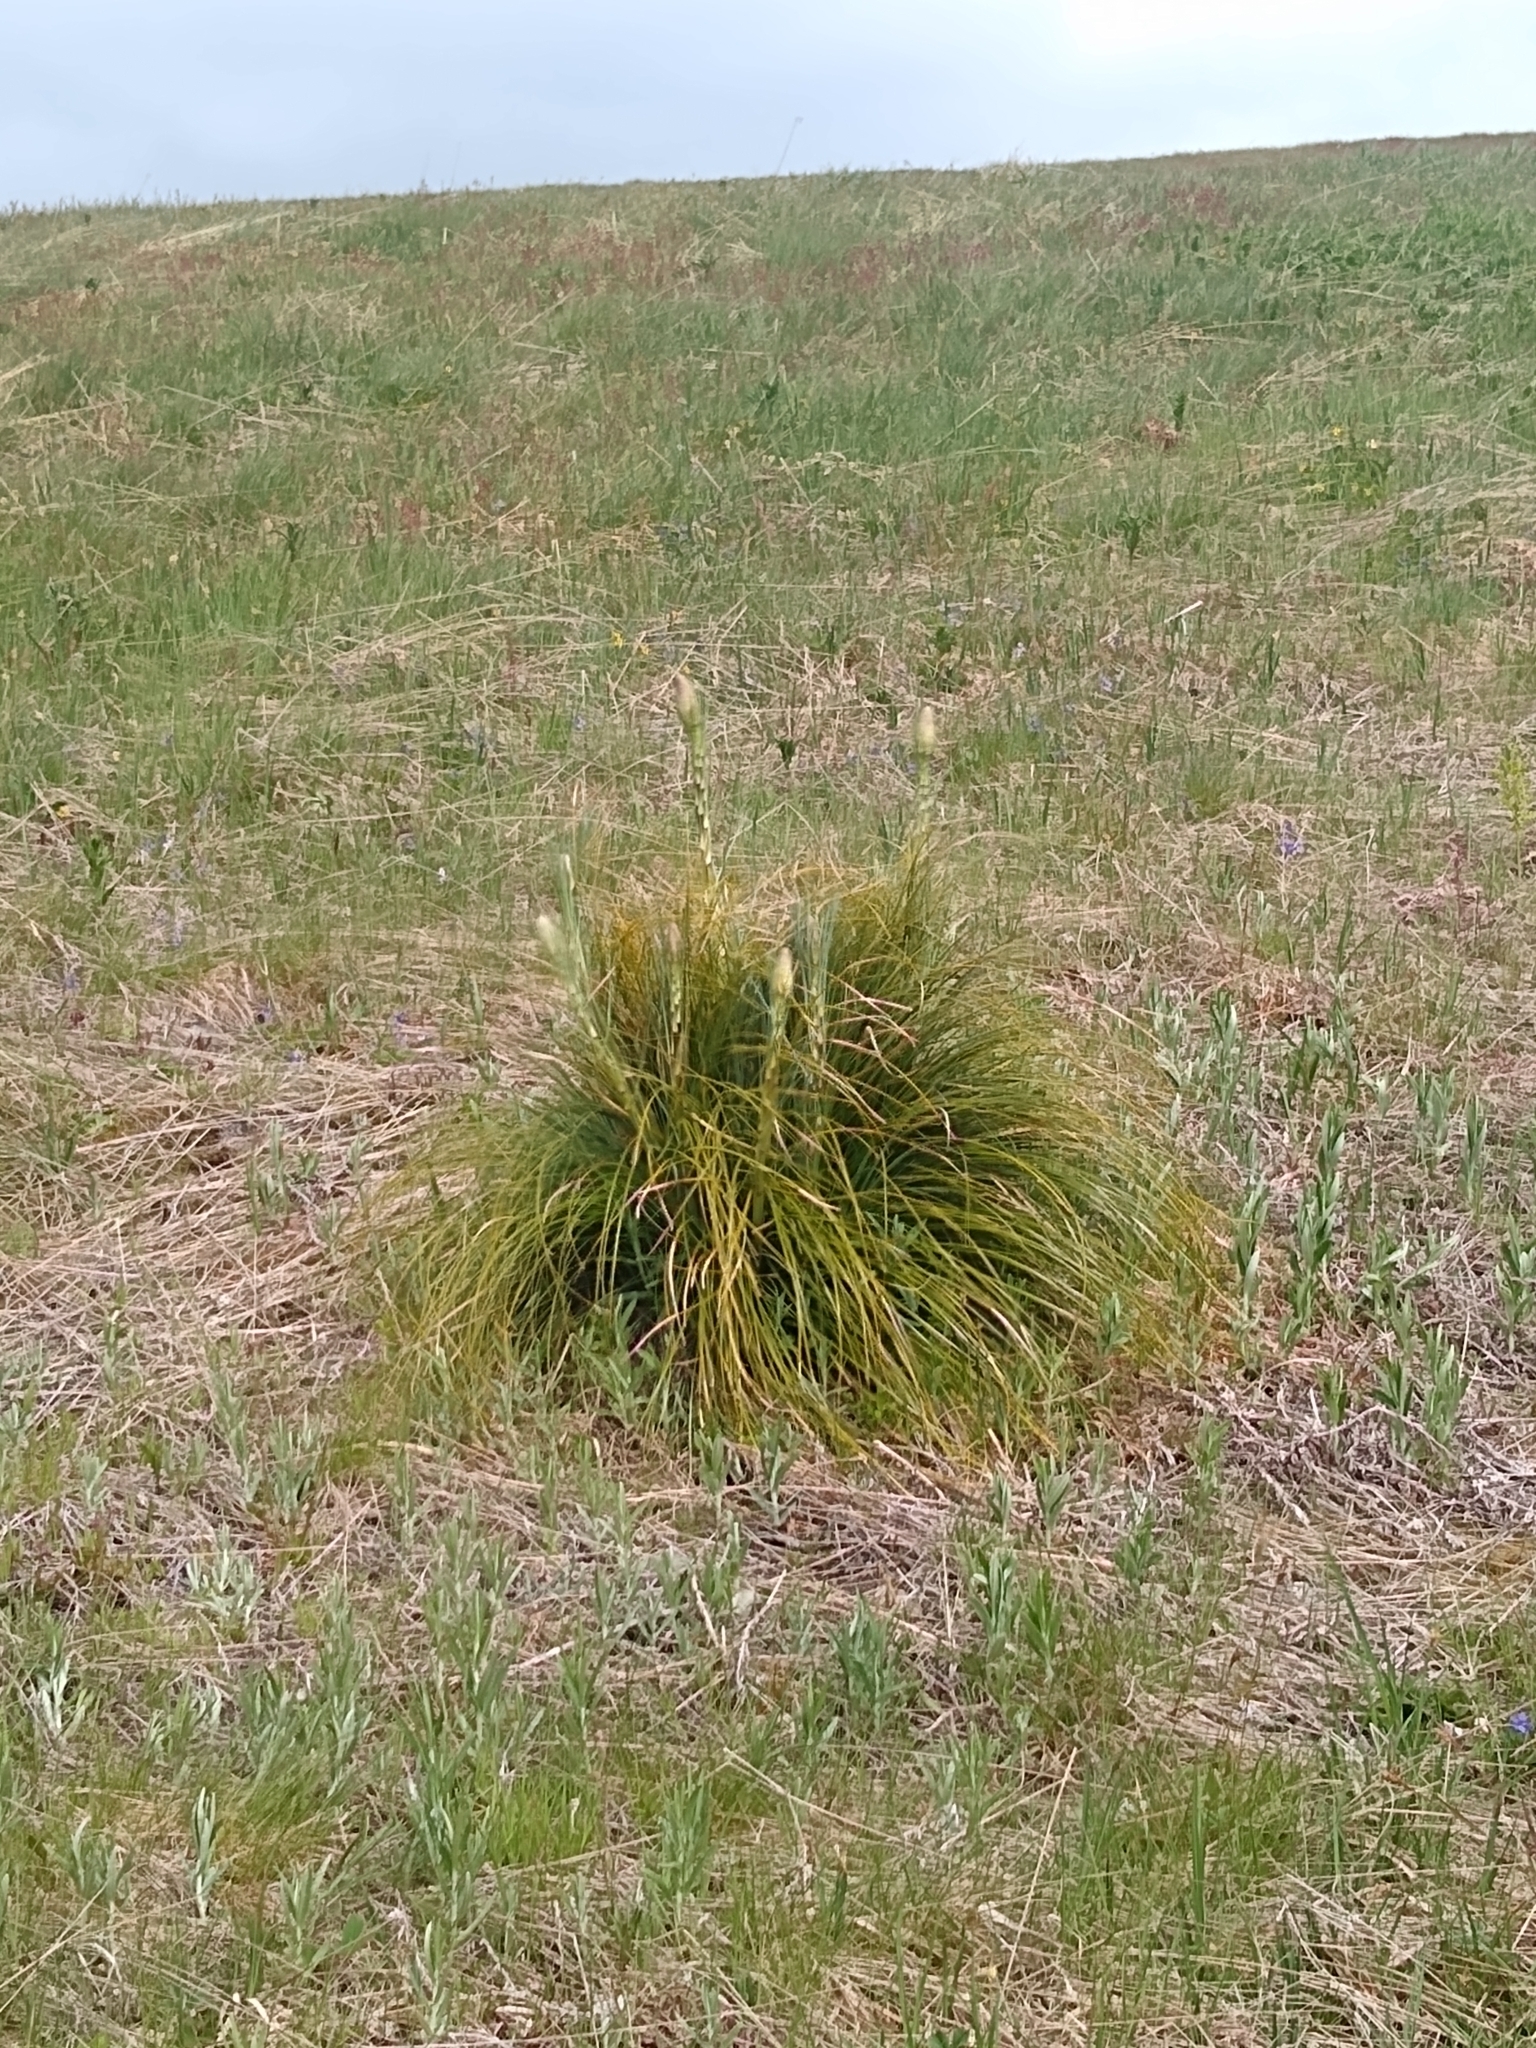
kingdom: Plantae
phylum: Tracheophyta
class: Liliopsida
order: Liliales
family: Melanthiaceae
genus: Xerophyllum
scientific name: Xerophyllum tenax
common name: Bear-grass
